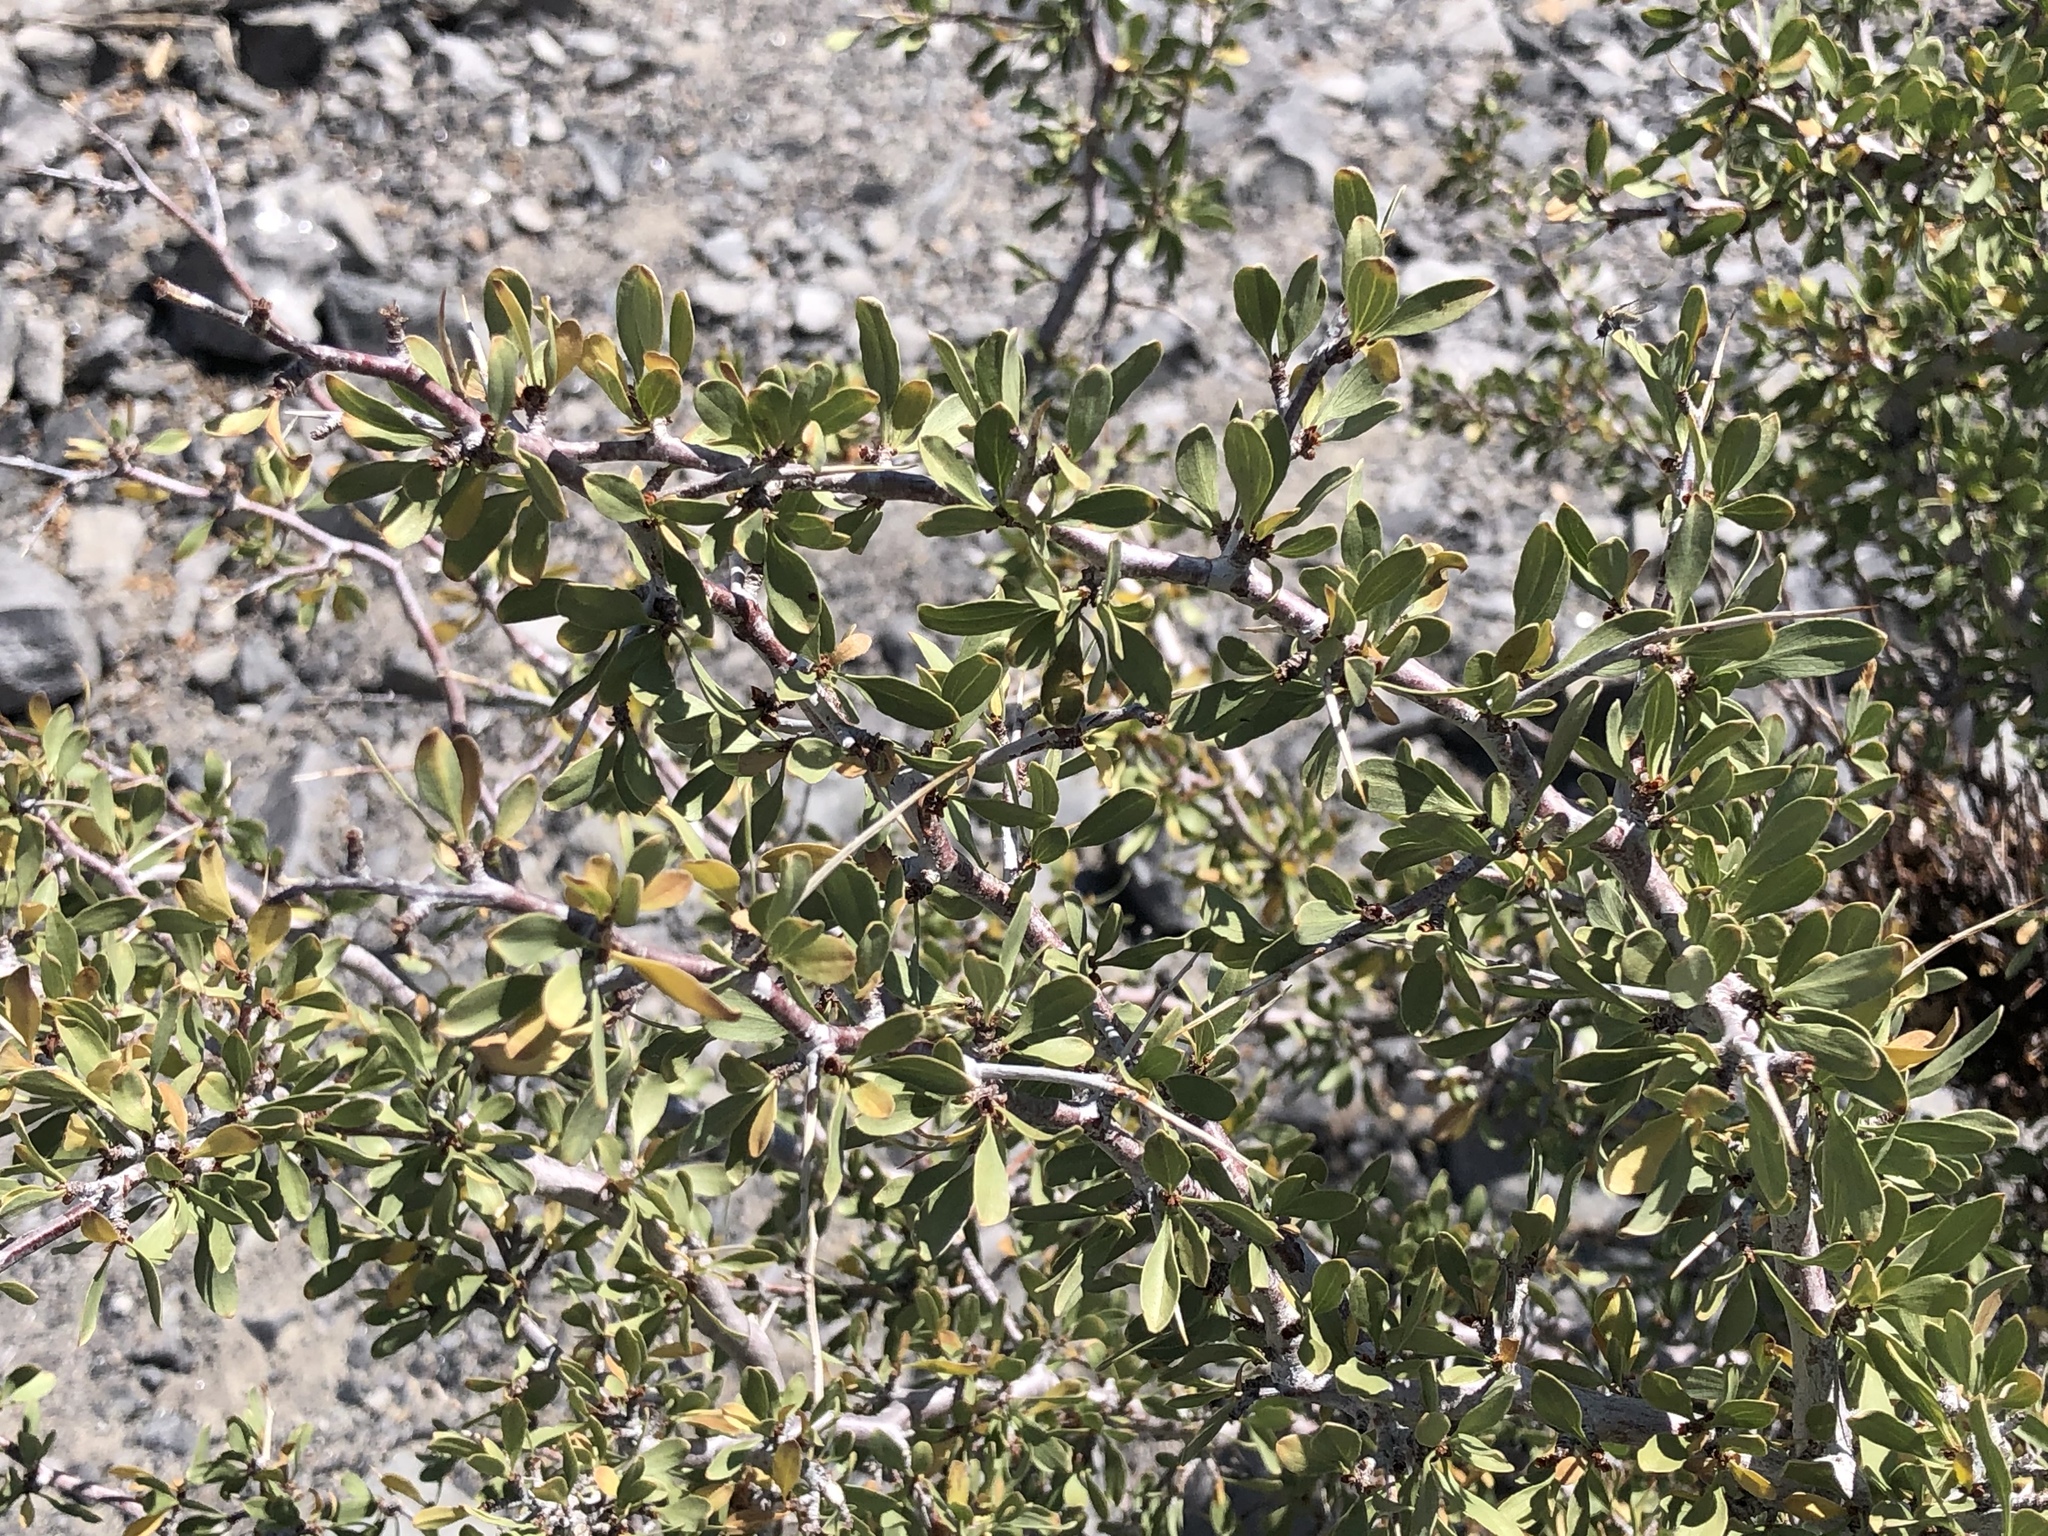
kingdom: Plantae
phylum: Tracheophyta
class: Magnoliopsida
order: Rosales
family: Rosaceae
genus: Prunus
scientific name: Prunus andersonii
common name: Desert peach
